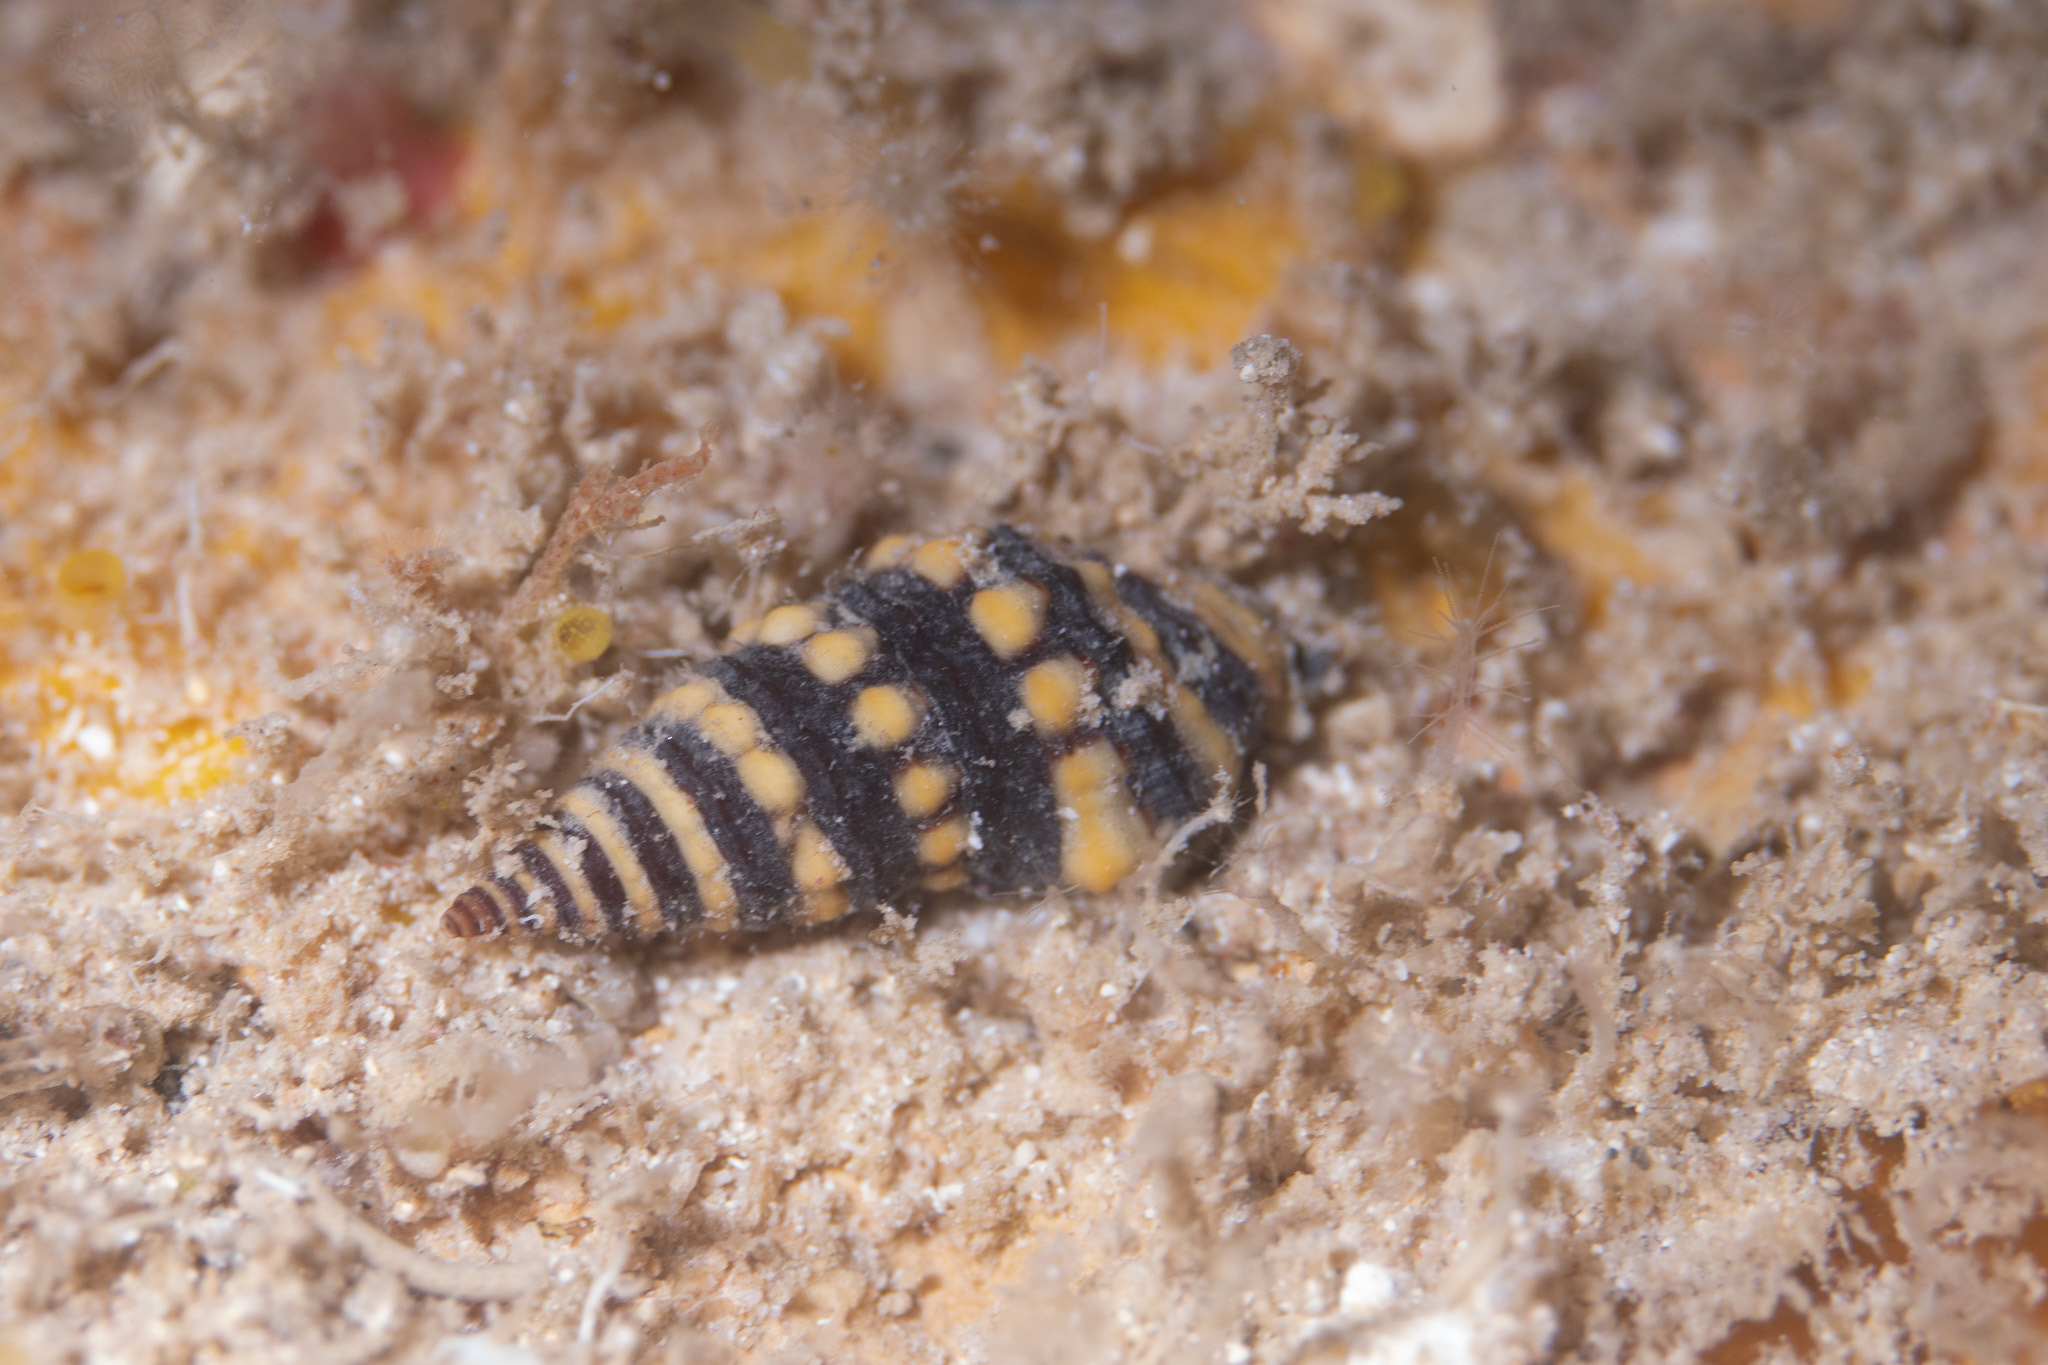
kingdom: Animalia
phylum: Mollusca
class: Gastropoda
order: Neogastropoda
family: Pseudomelatomidae
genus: Pilsbryspira
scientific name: Pilsbryspira albocincta
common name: White-banded turret
